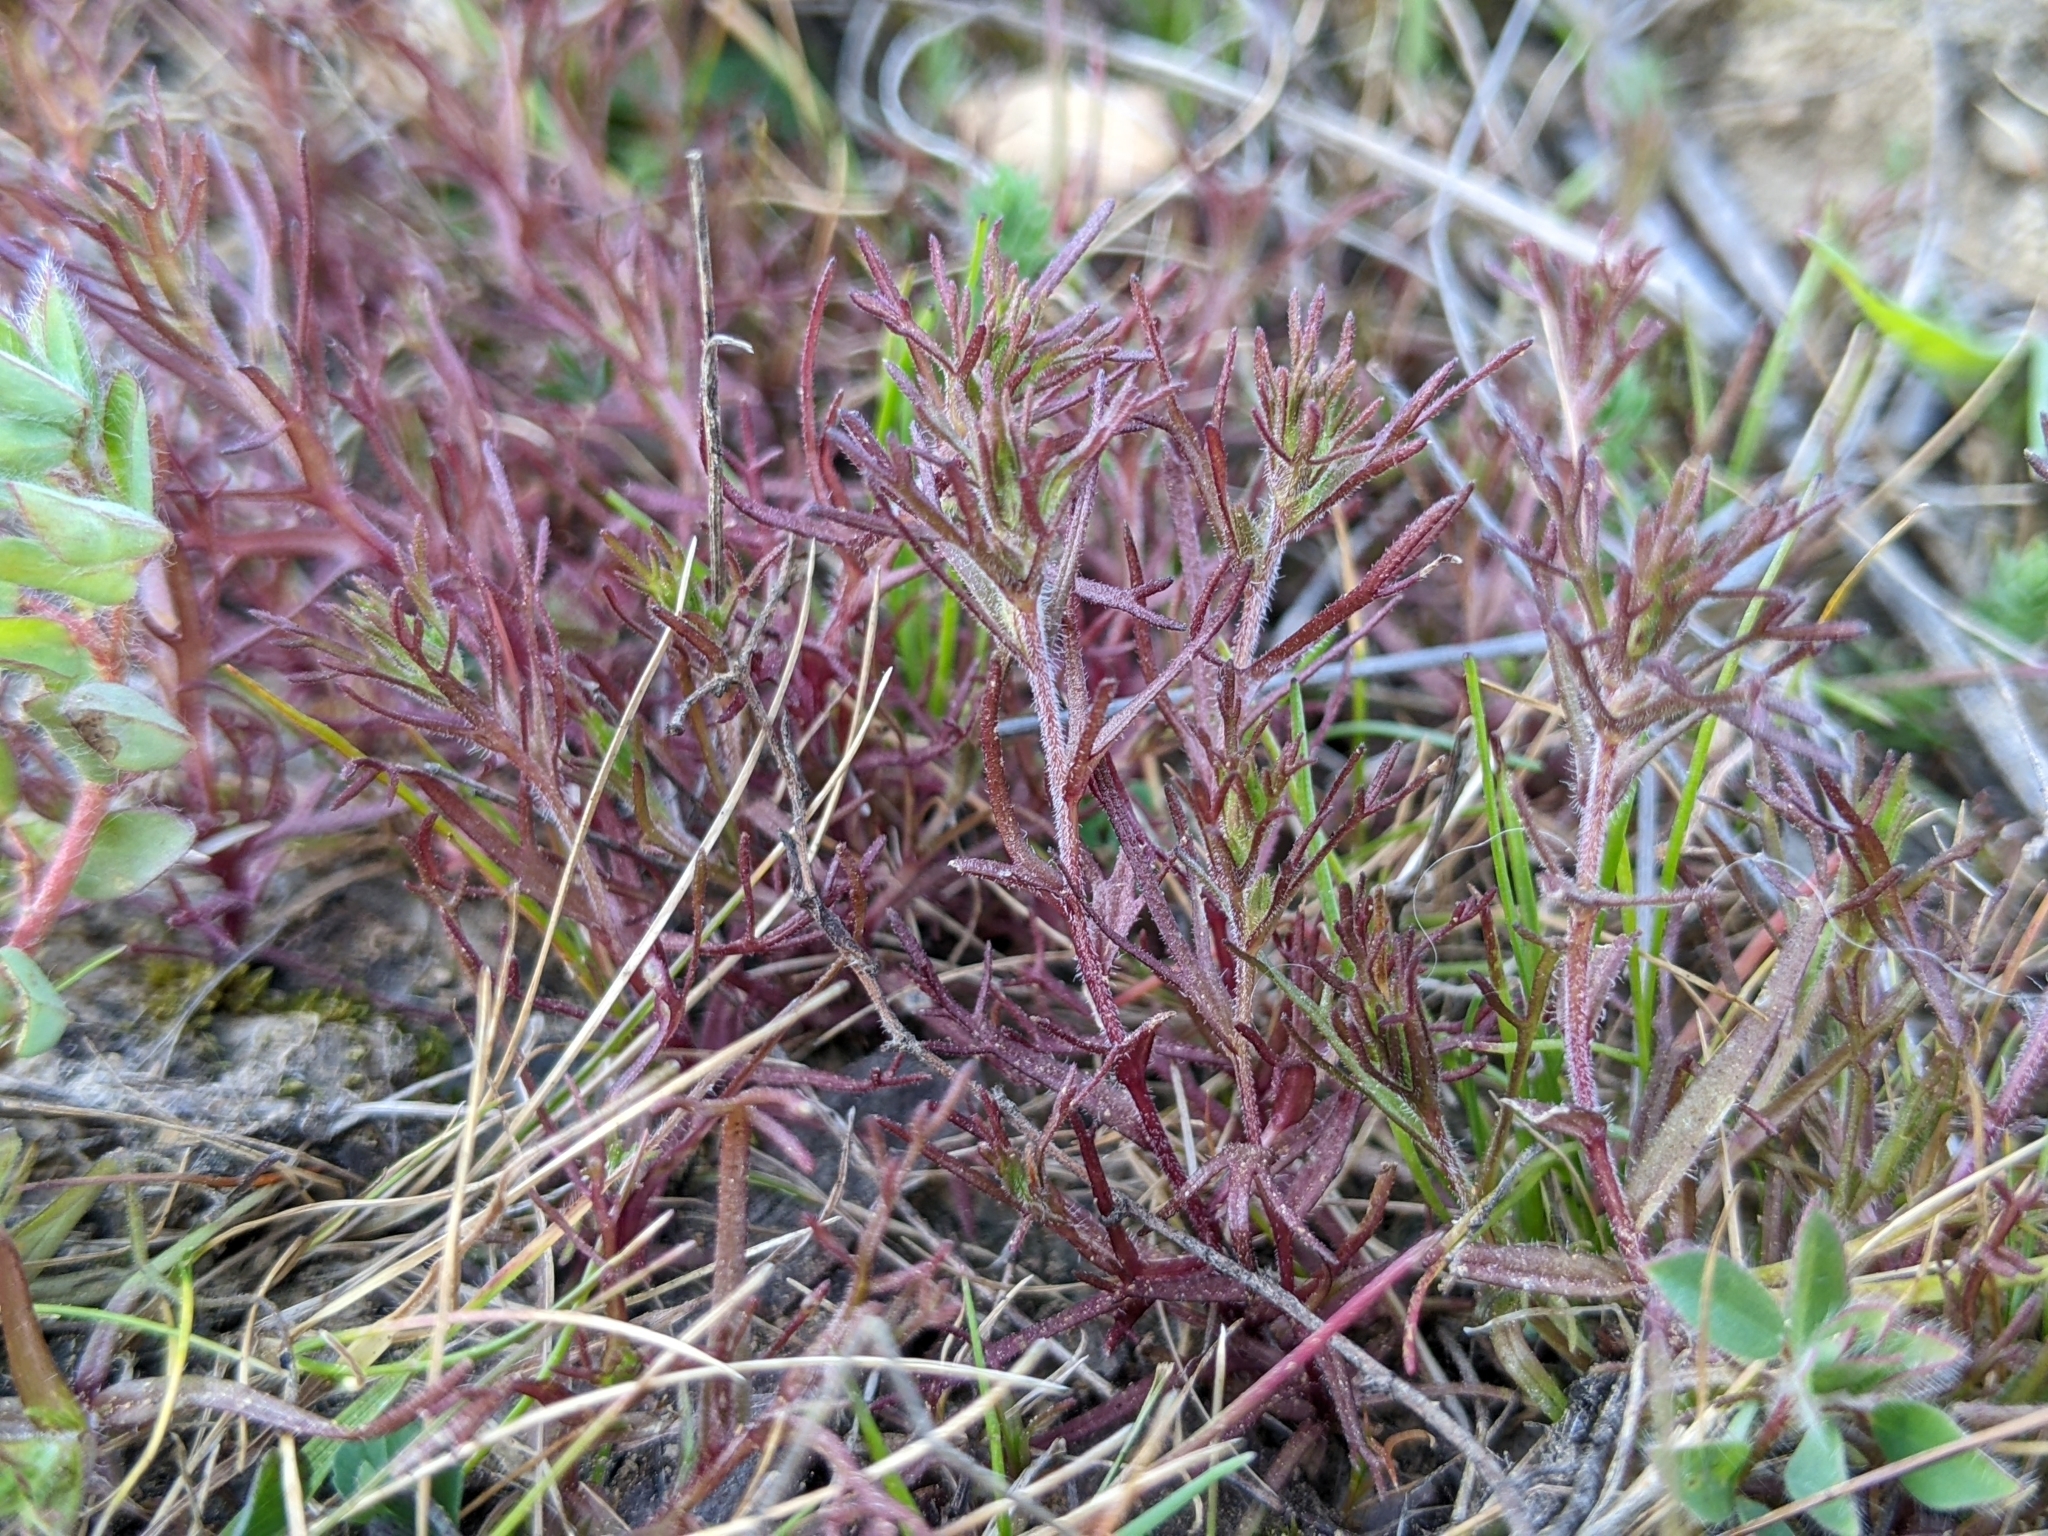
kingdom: Plantae
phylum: Tracheophyta
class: Magnoliopsida
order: Lamiales
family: Orobanchaceae
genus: Triphysaria
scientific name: Triphysaria pusilla
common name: Dwarf false owl-clover
